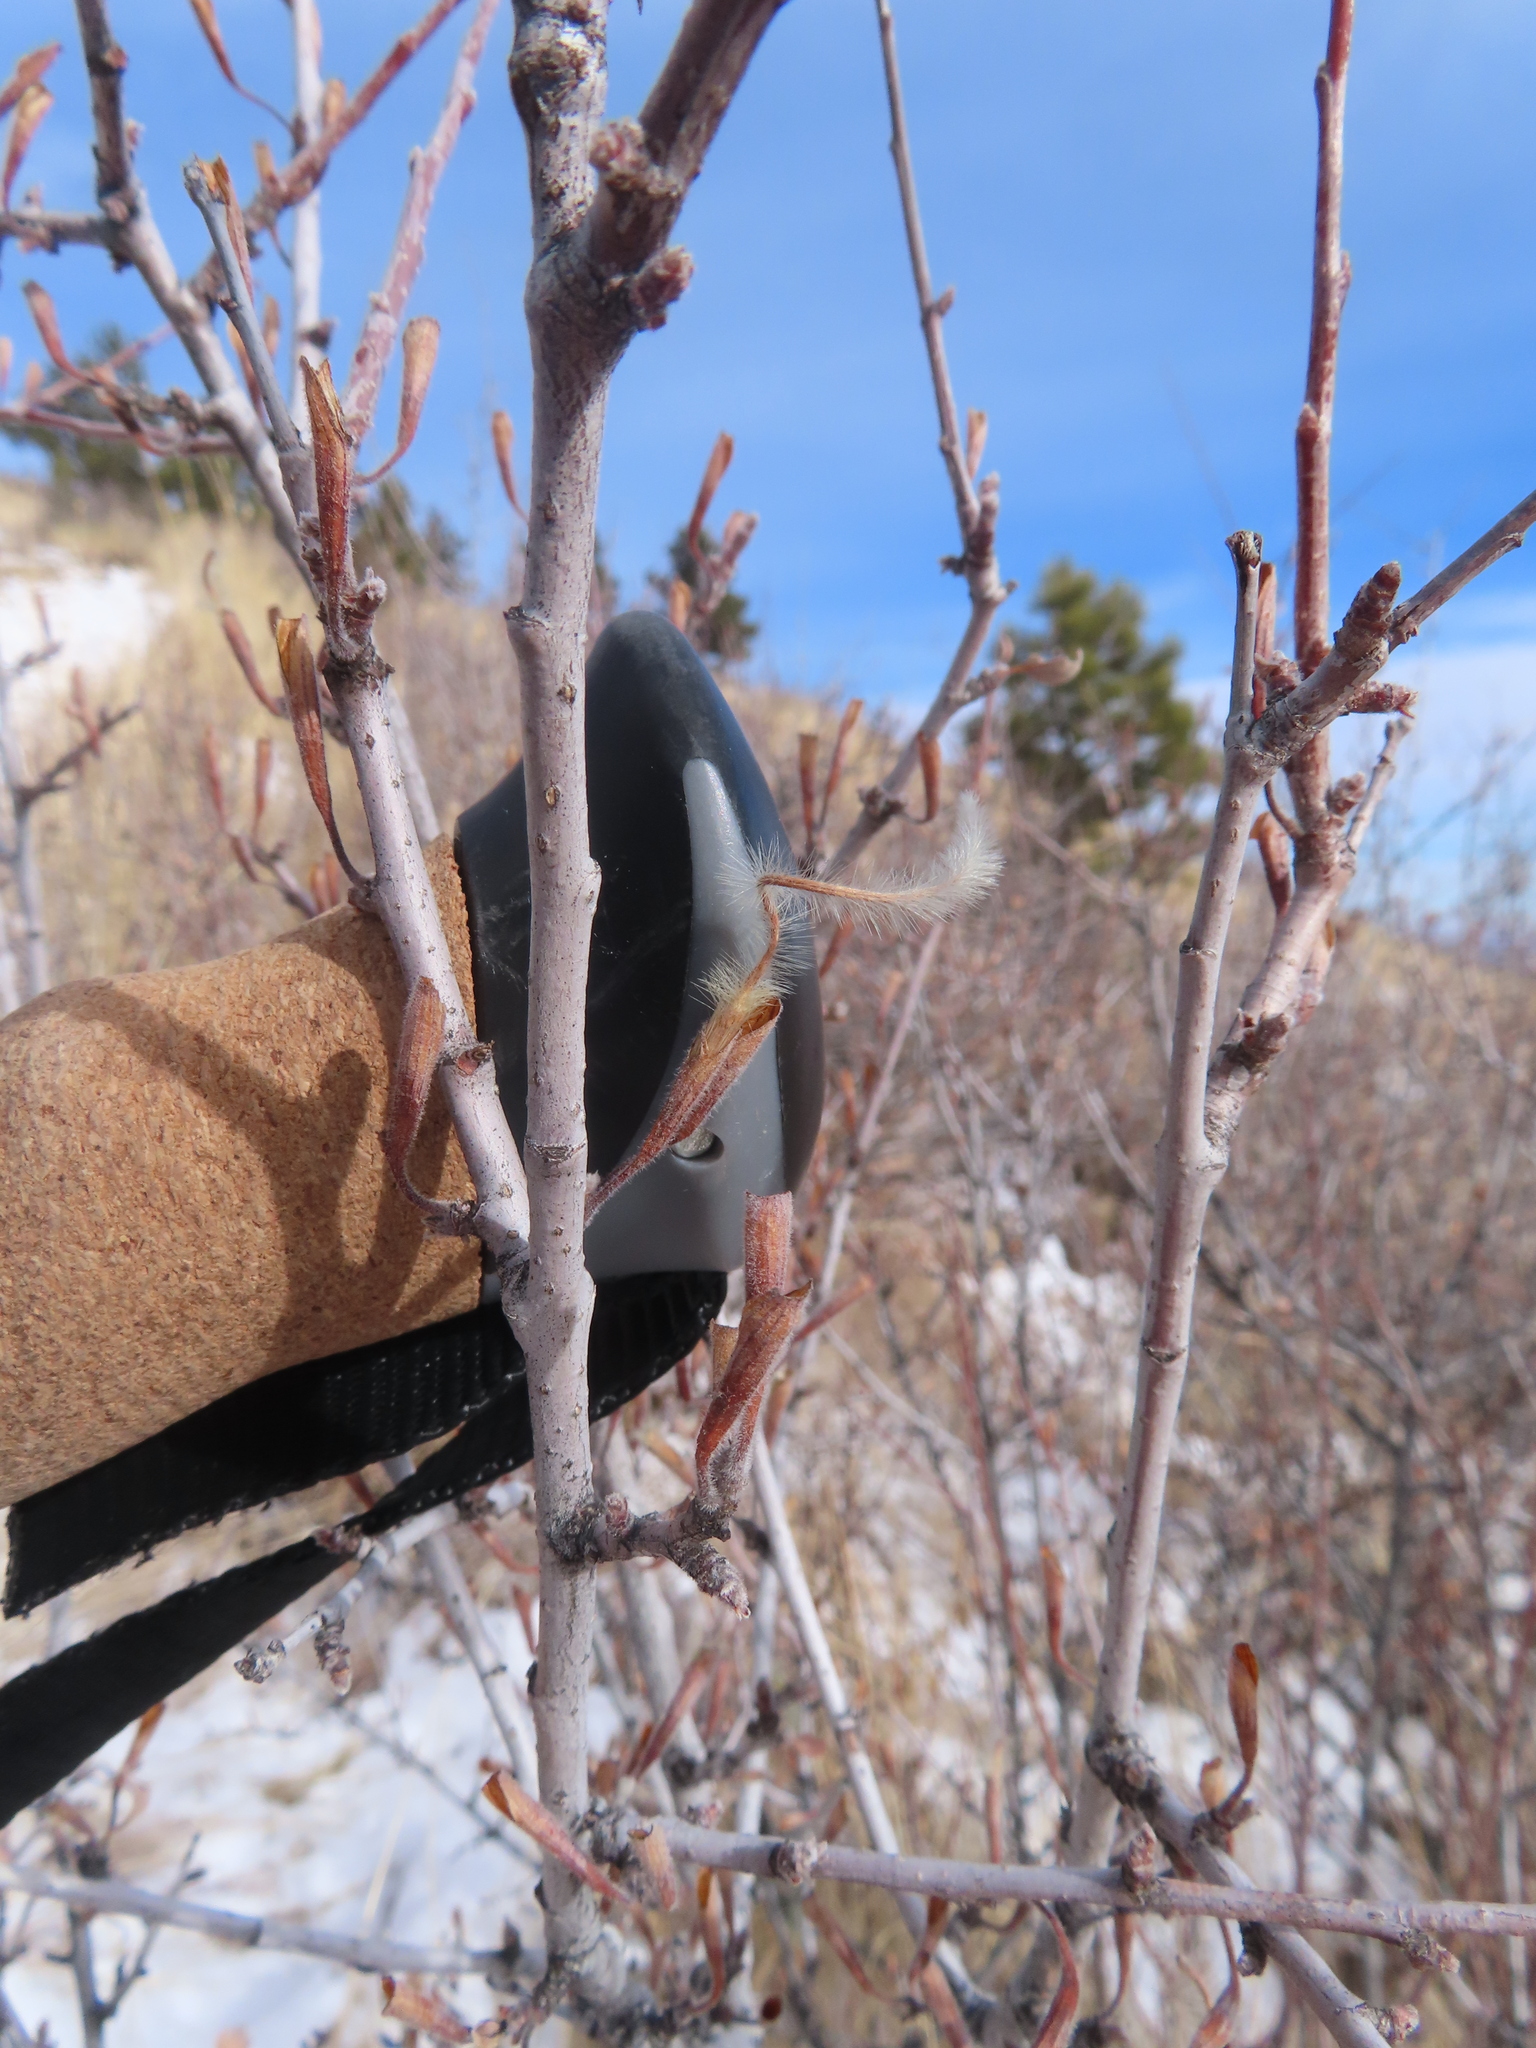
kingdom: Plantae
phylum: Tracheophyta
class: Magnoliopsida
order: Rosales
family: Rosaceae
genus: Cercocarpus
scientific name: Cercocarpus montanus
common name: Alder-leaf cercocarpus
